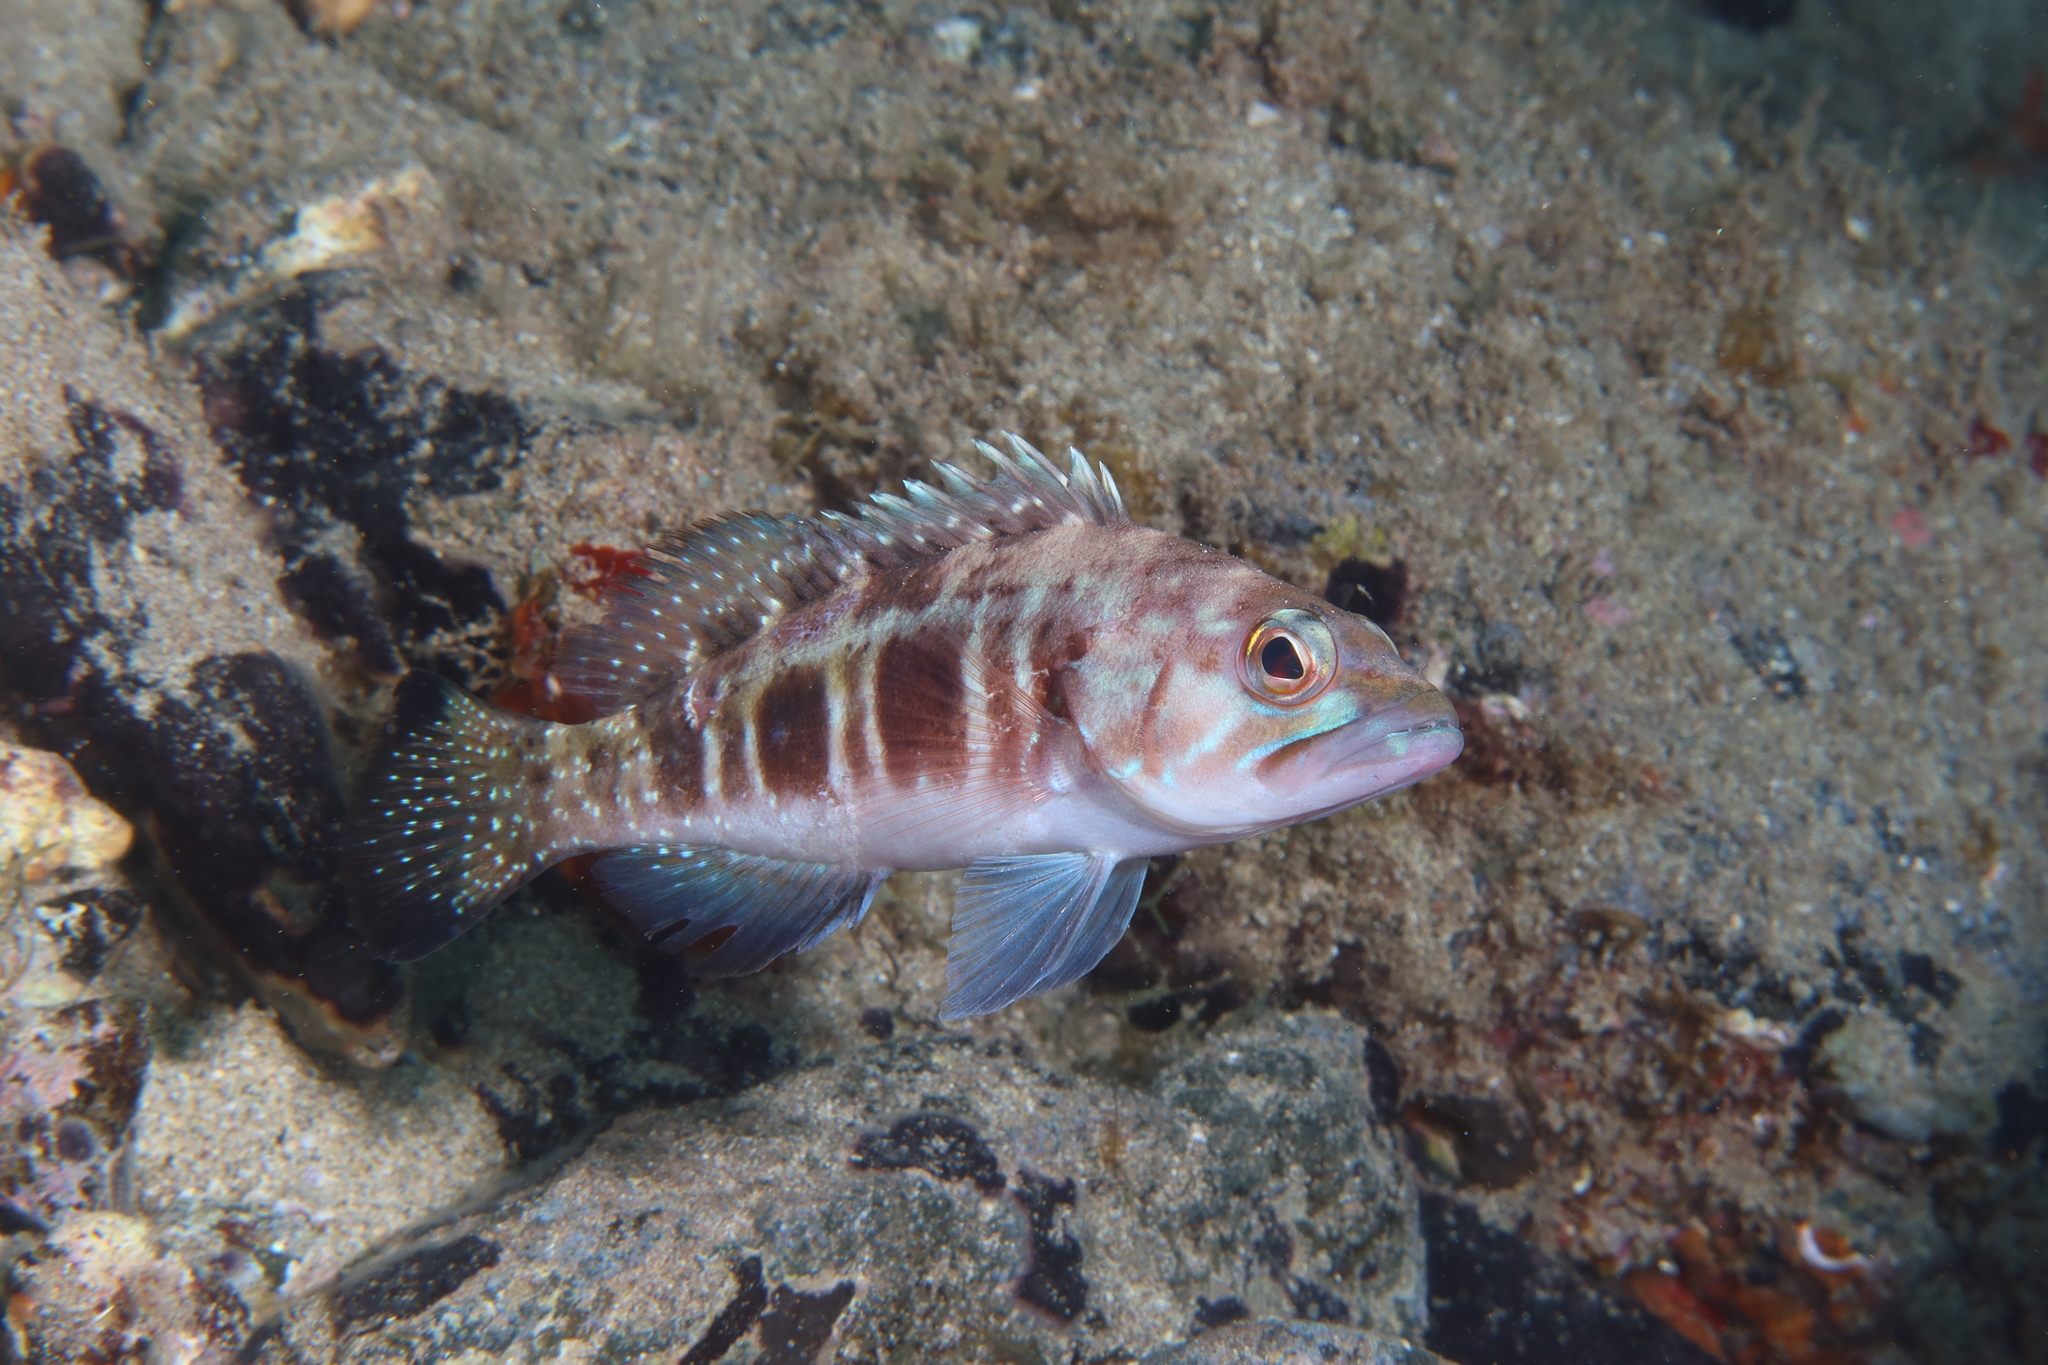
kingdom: Animalia
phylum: Chordata
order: Perciformes
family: Serranidae
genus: Serranus
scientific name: Serranus atricauda
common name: Blacktail comber
